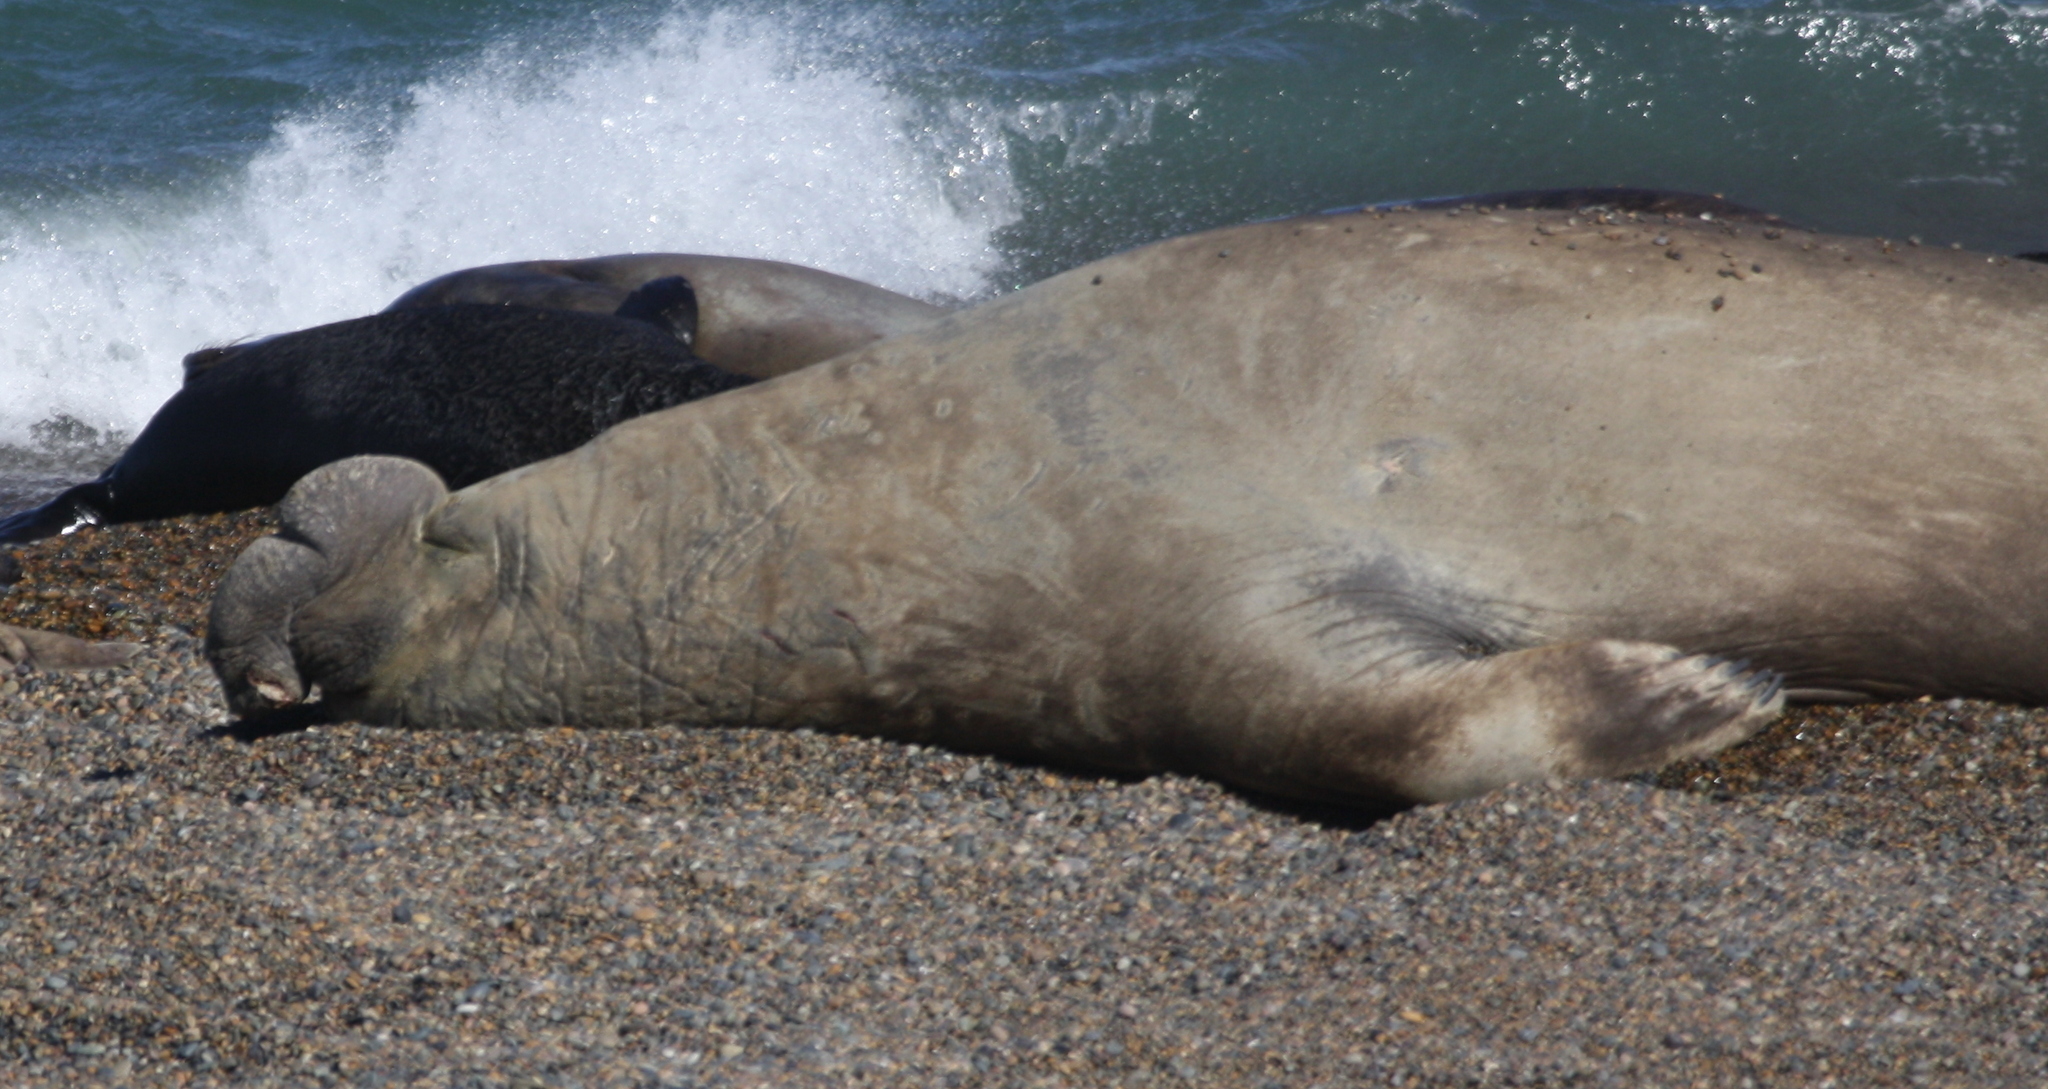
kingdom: Animalia
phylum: Chordata
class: Mammalia
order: Carnivora
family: Phocidae
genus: Mirounga
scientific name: Mirounga leonina
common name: Southern elephant seal
